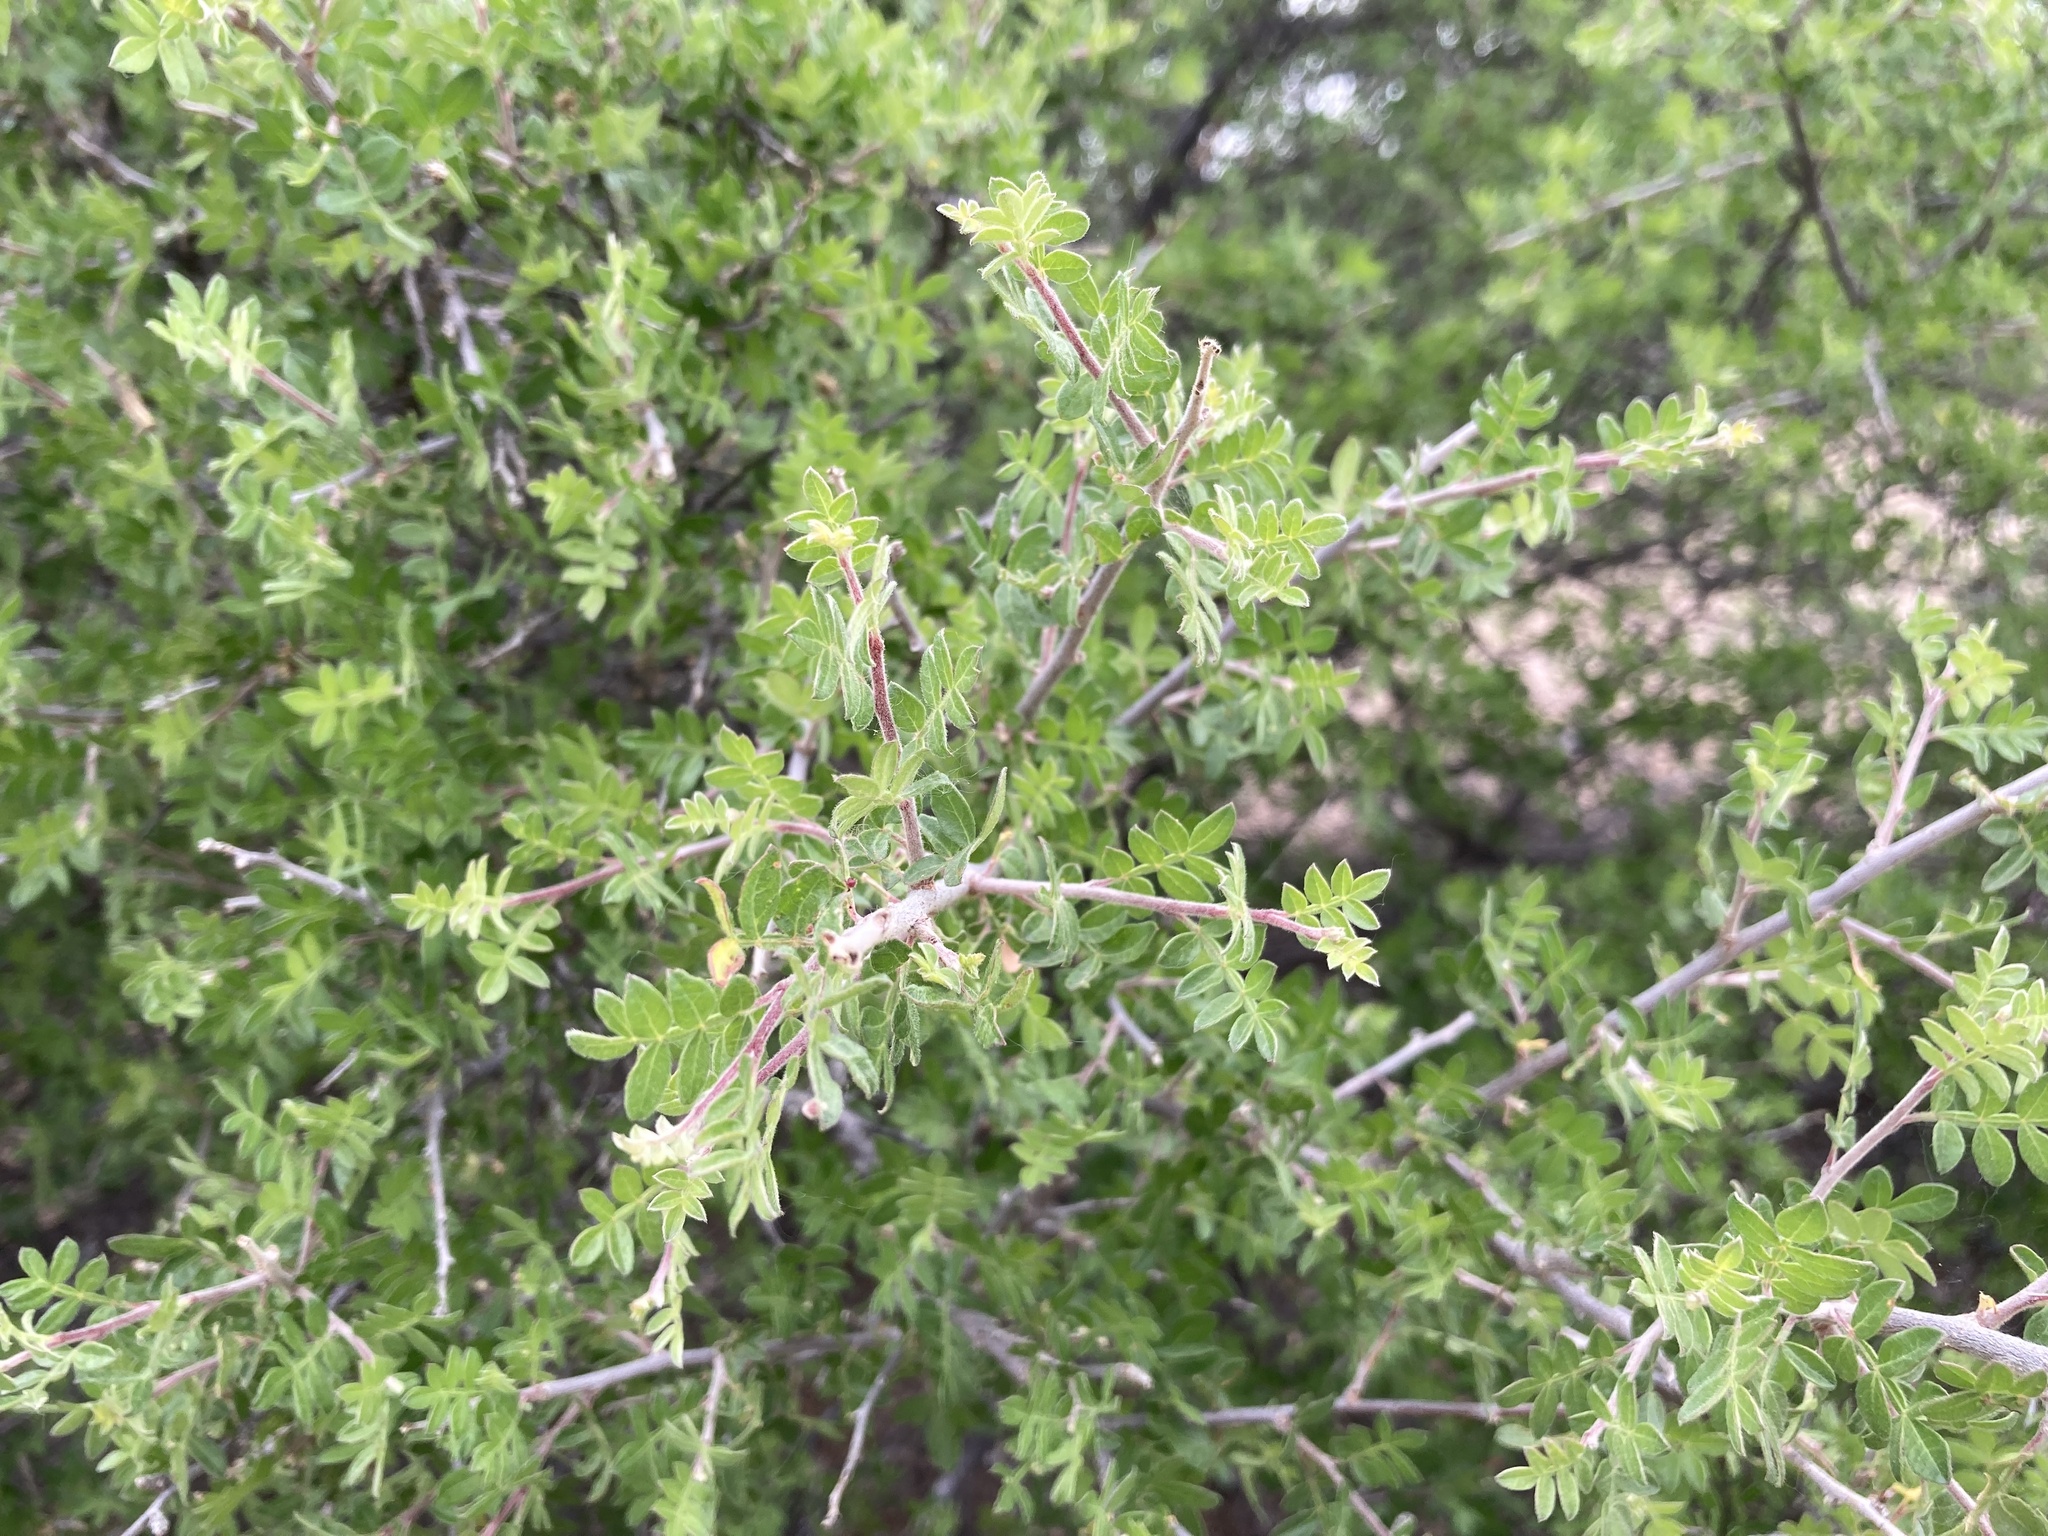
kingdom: Plantae
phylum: Tracheophyta
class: Magnoliopsida
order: Sapindales
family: Anacardiaceae
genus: Rhus
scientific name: Rhus microphylla
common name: Desert sumac
